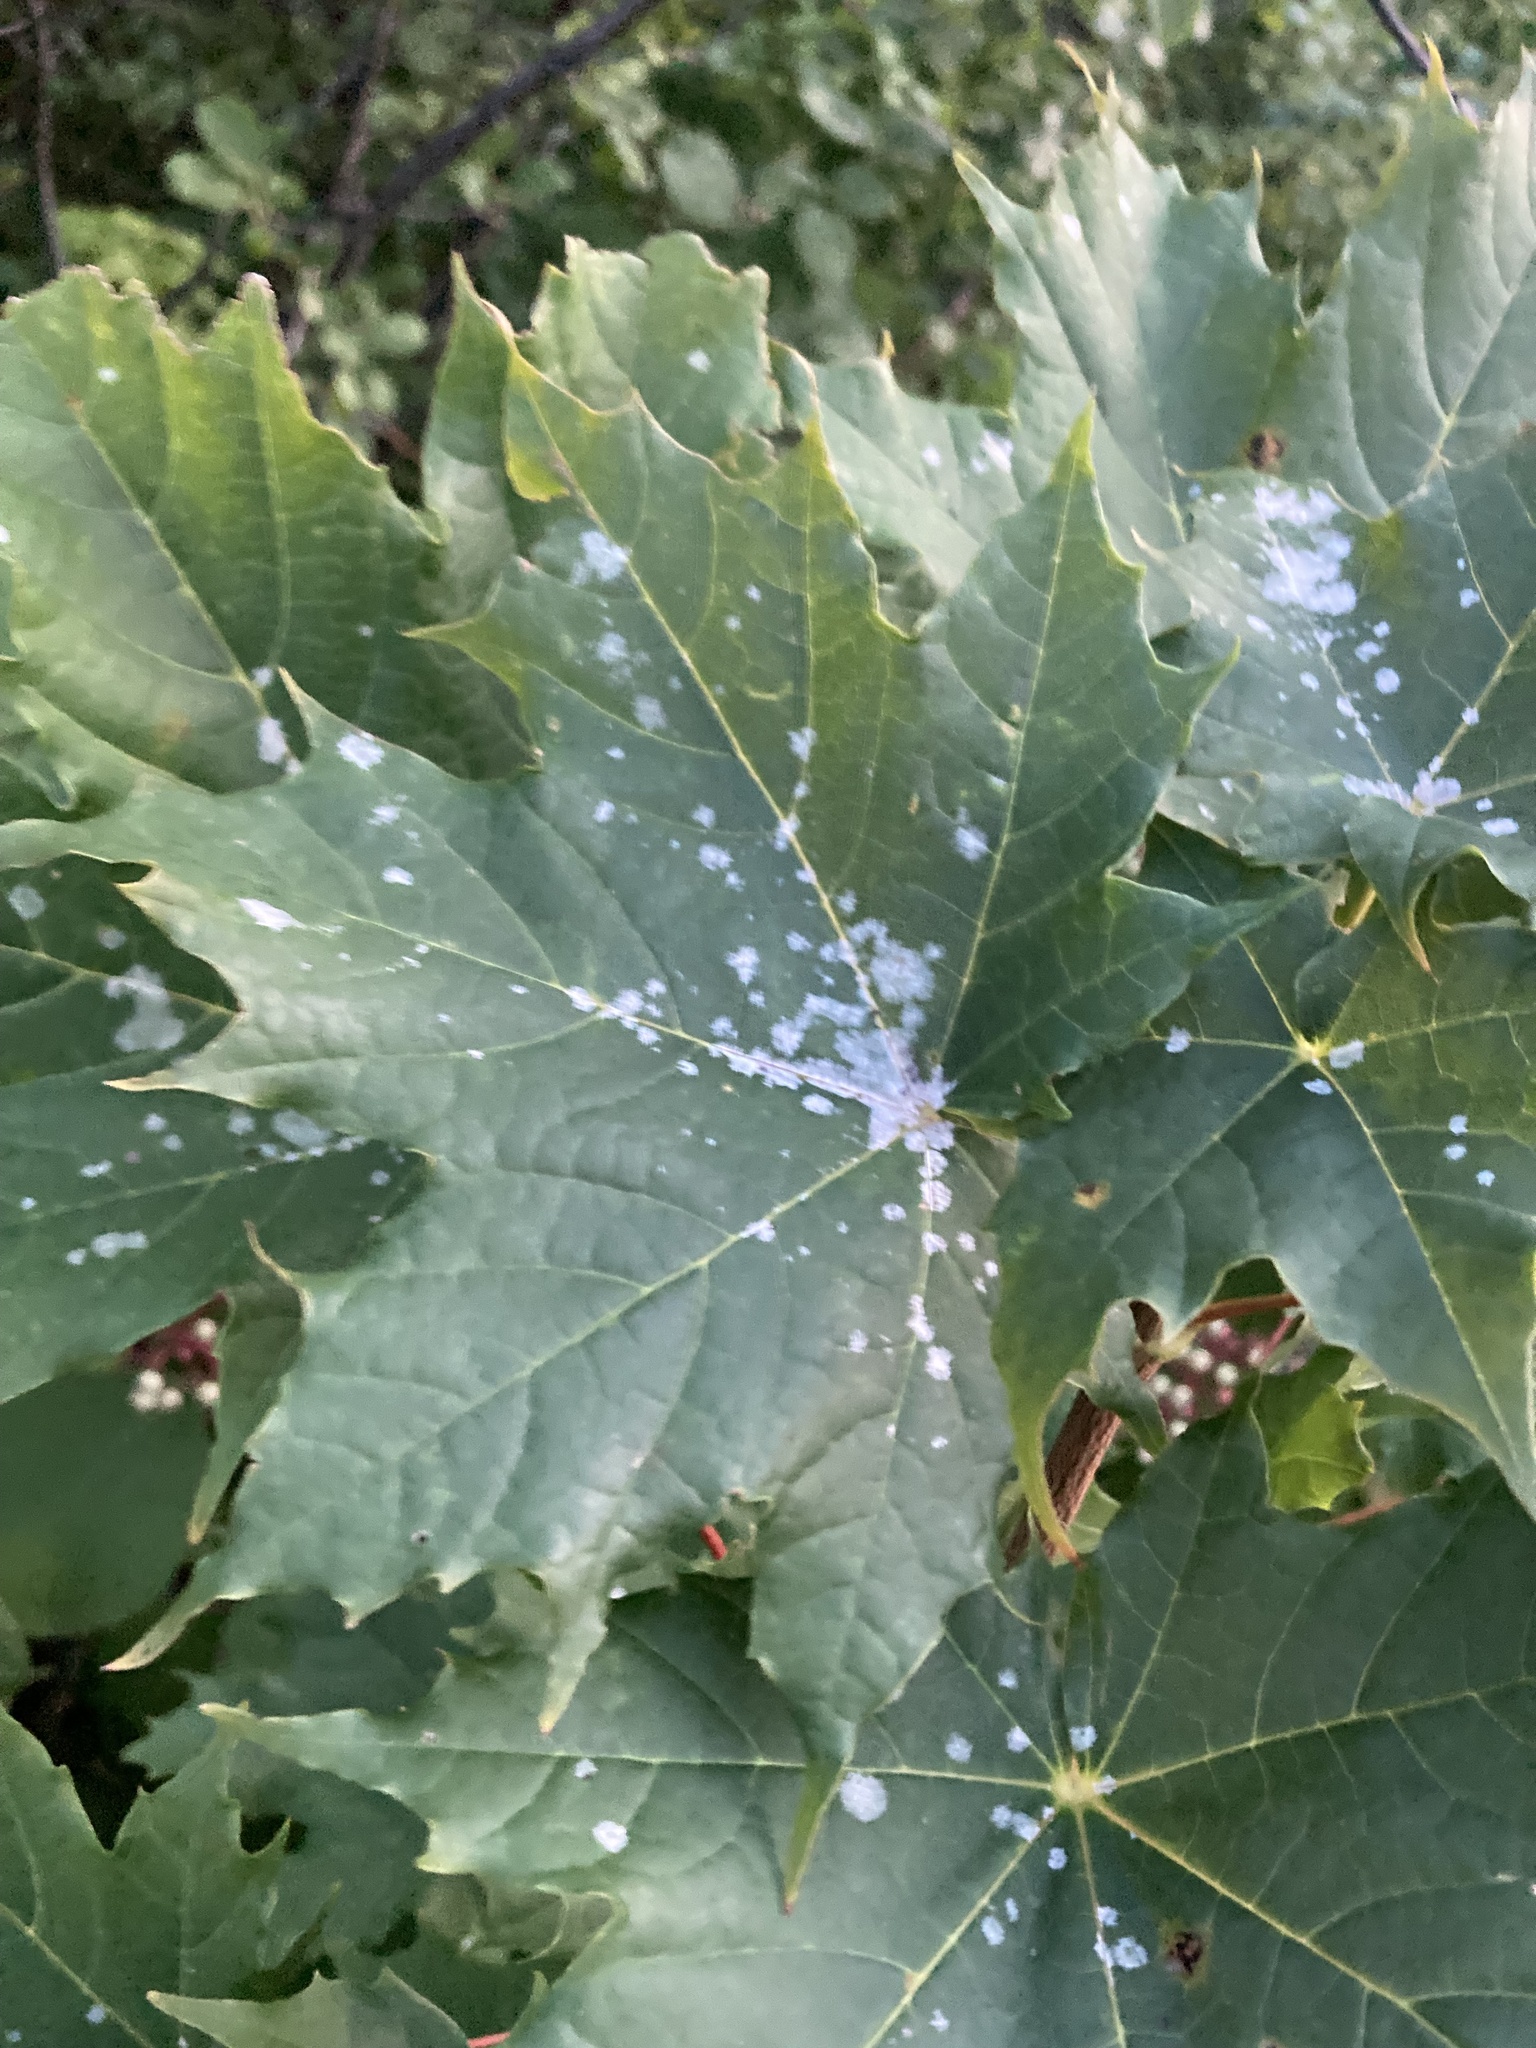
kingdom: Plantae
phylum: Tracheophyta
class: Magnoliopsida
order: Sapindales
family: Sapindaceae
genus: Acer
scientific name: Acer platanoides
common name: Norway maple
